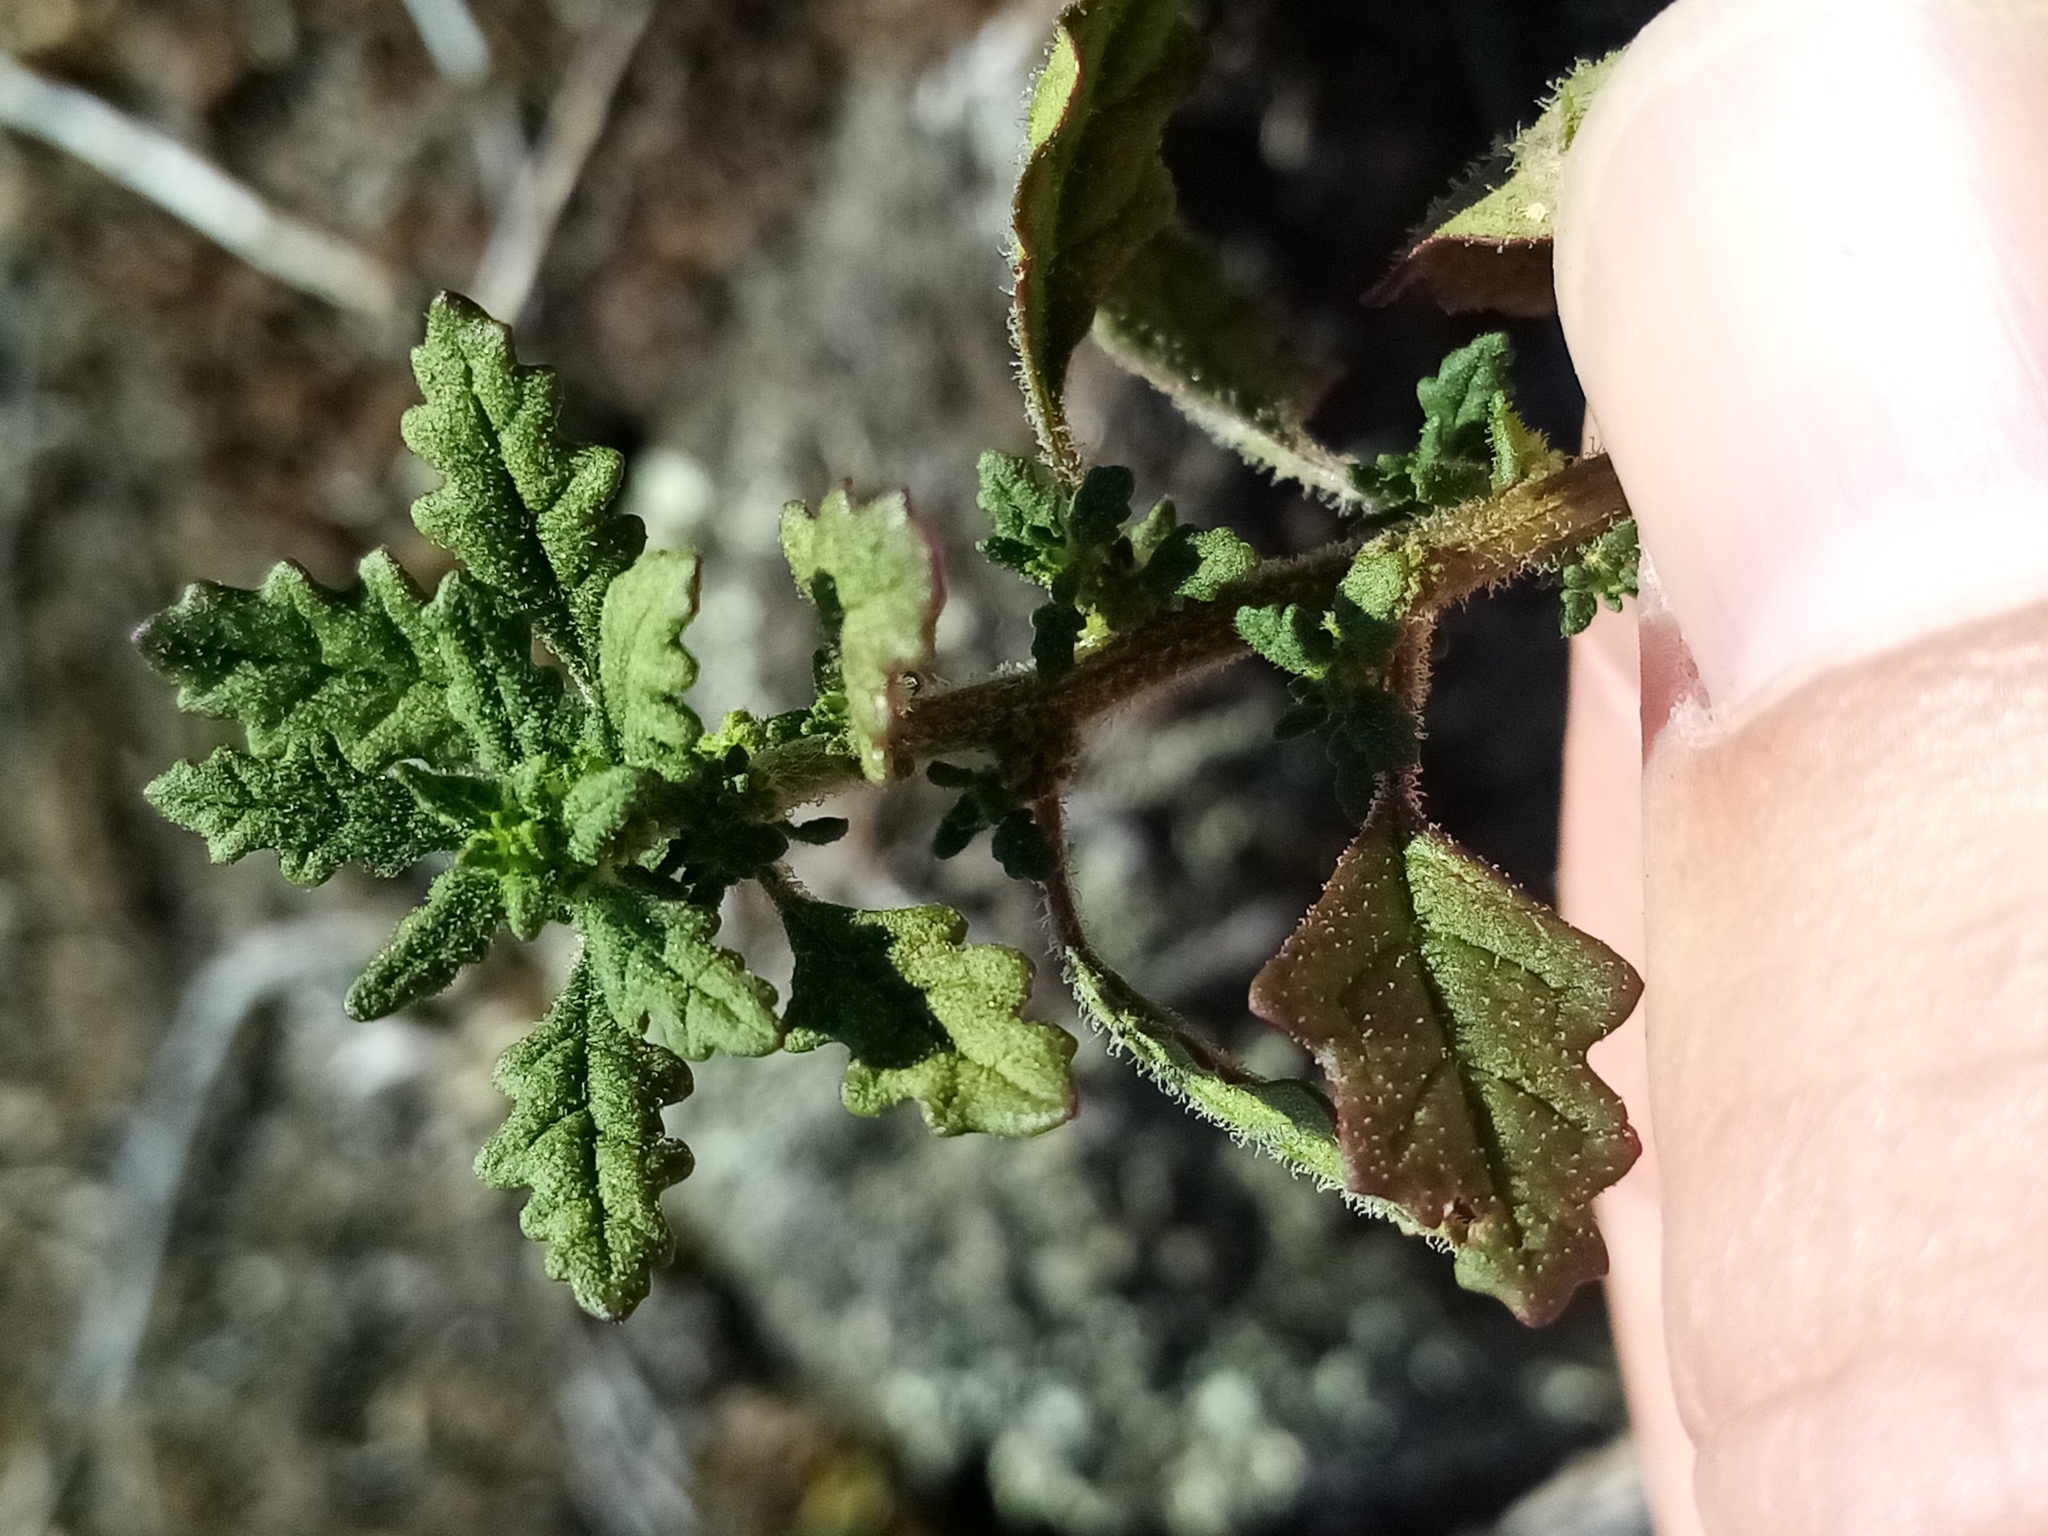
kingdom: Plantae
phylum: Tracheophyta
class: Magnoliopsida
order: Caryophyllales
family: Amaranthaceae
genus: Dysphania
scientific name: Dysphania pumilio
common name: Clammy goosefoot
